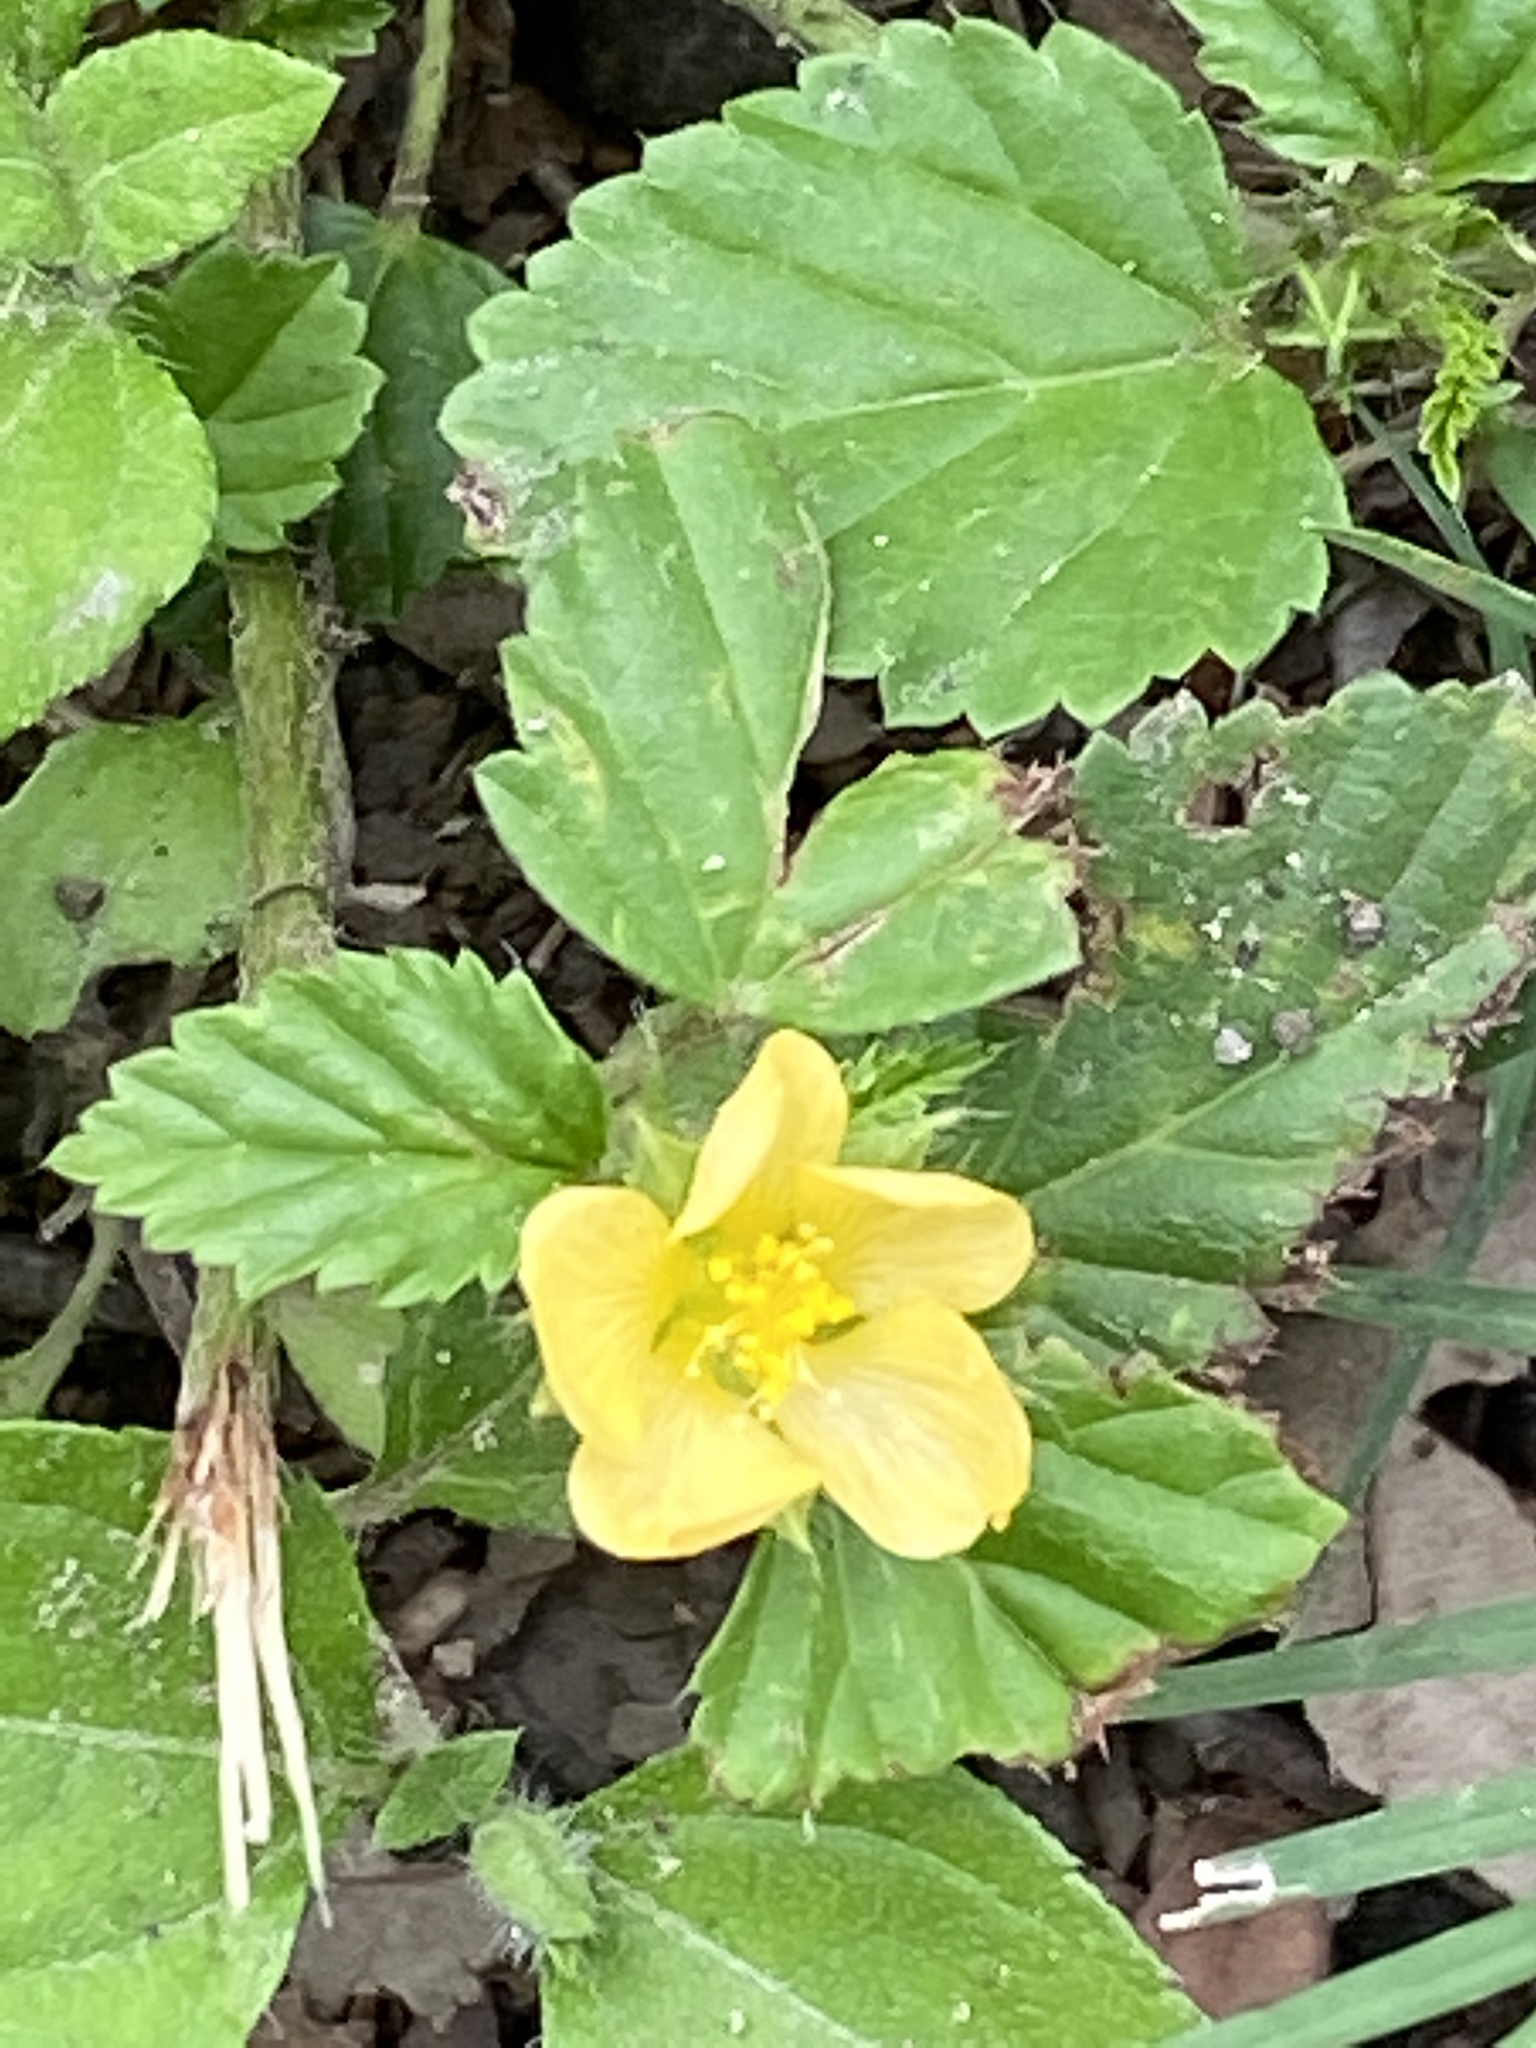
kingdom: Plantae
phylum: Tracheophyta
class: Magnoliopsida
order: Malvales
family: Malvaceae
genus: Malvastrum
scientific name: Malvastrum coromandelianum
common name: Threelobe false mallow
